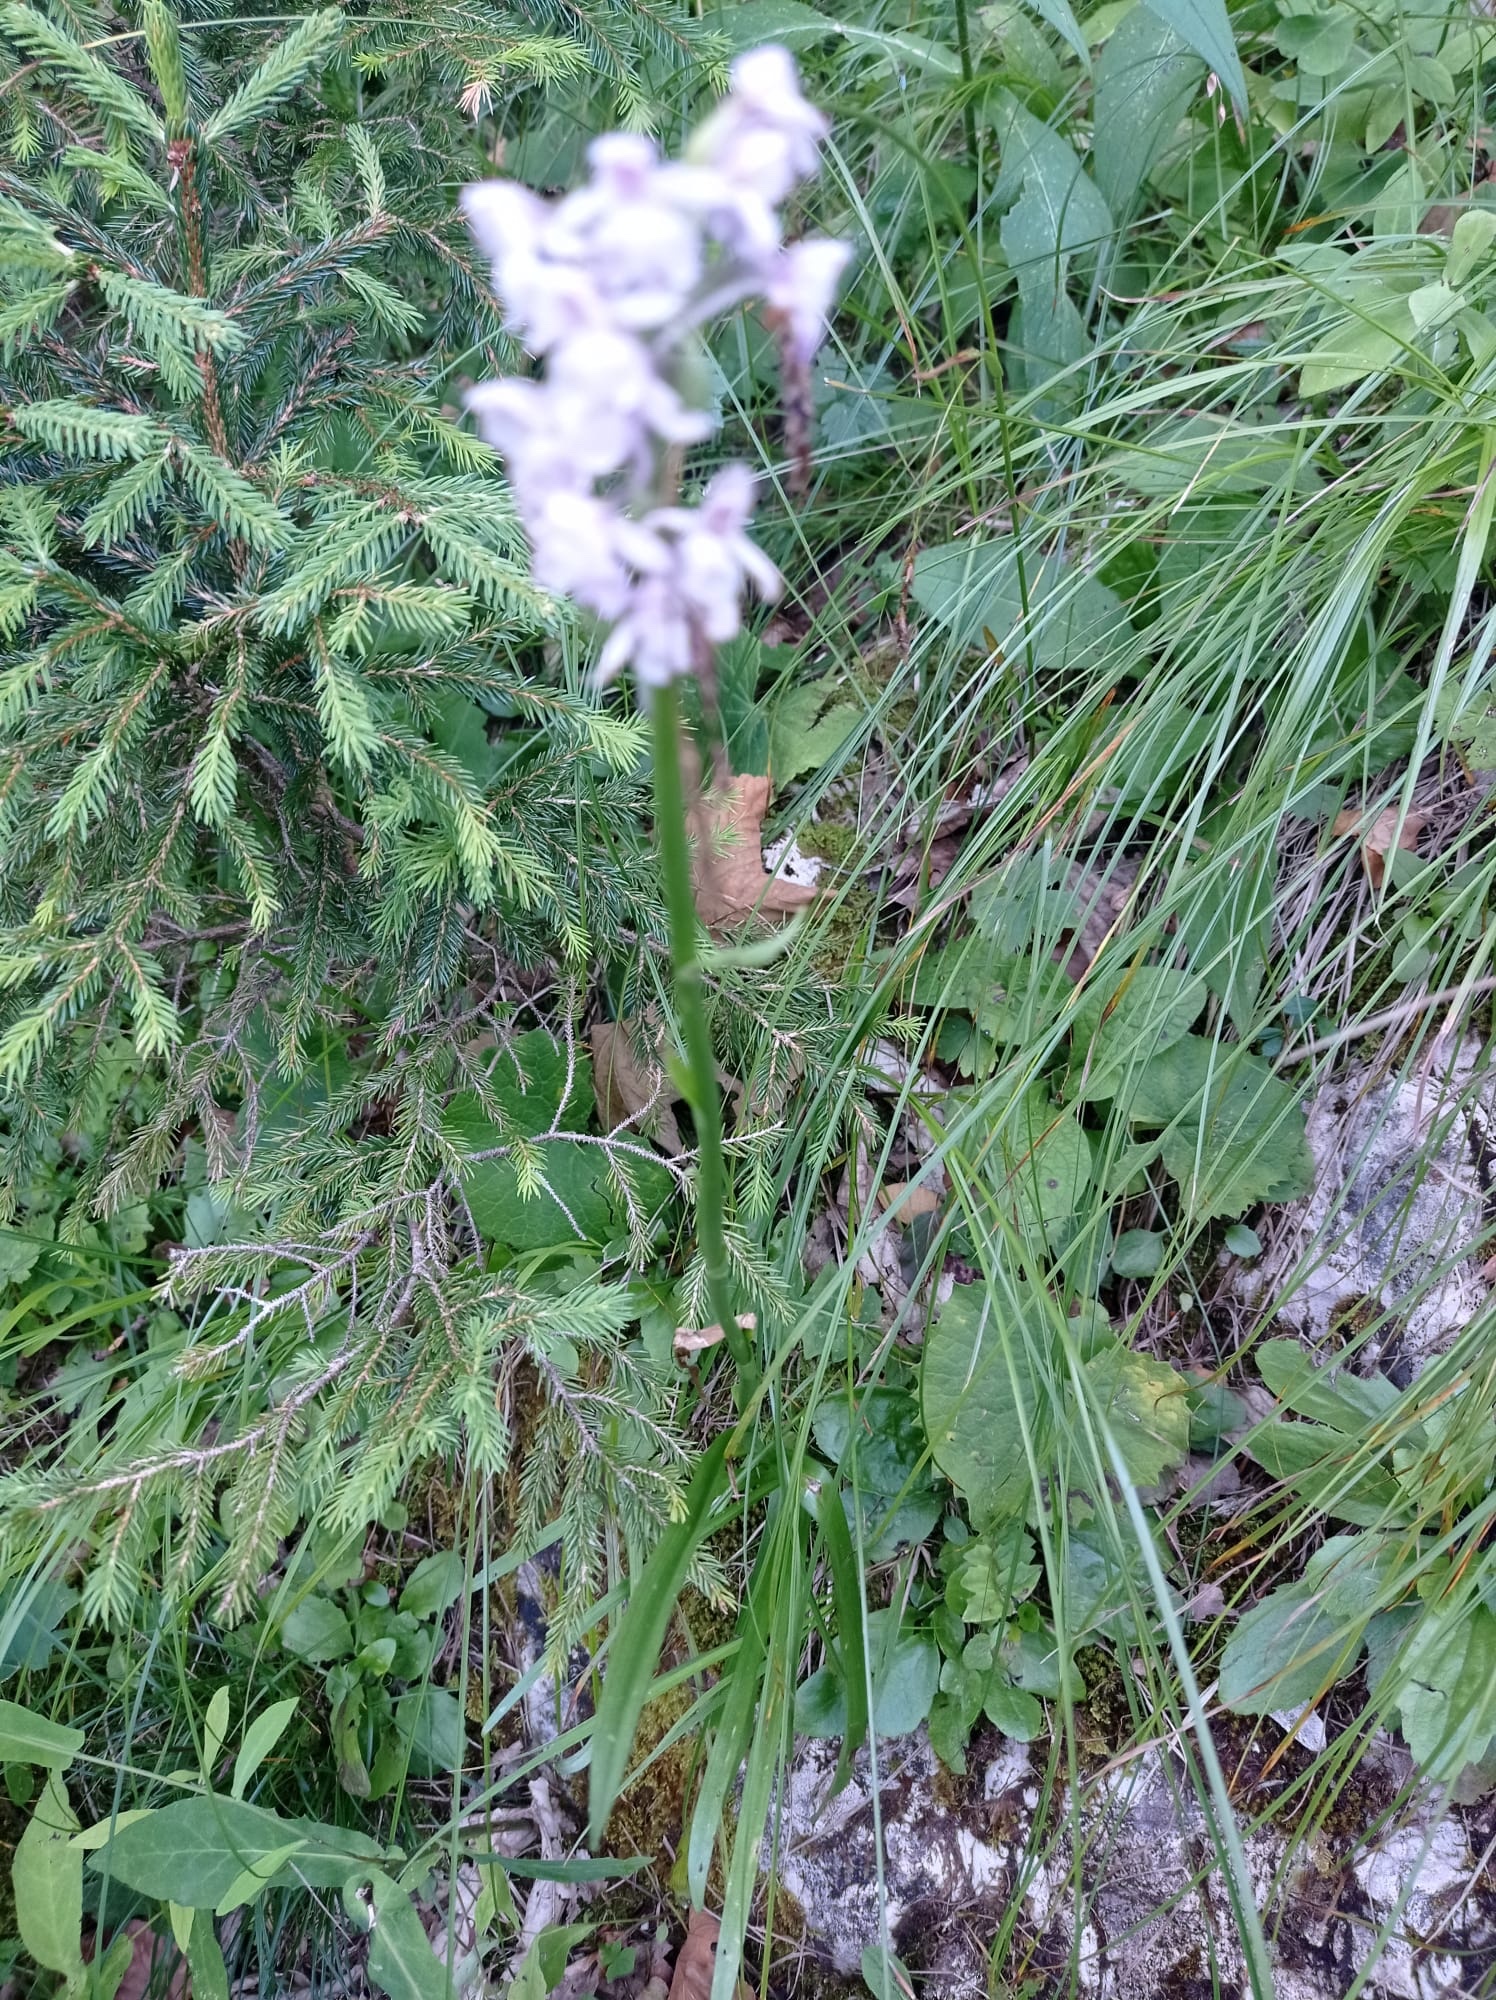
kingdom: Plantae
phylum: Tracheophyta
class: Liliopsida
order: Asparagales
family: Orchidaceae
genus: Gymnadenia
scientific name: Gymnadenia conopsea
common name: Fragrant orchid
